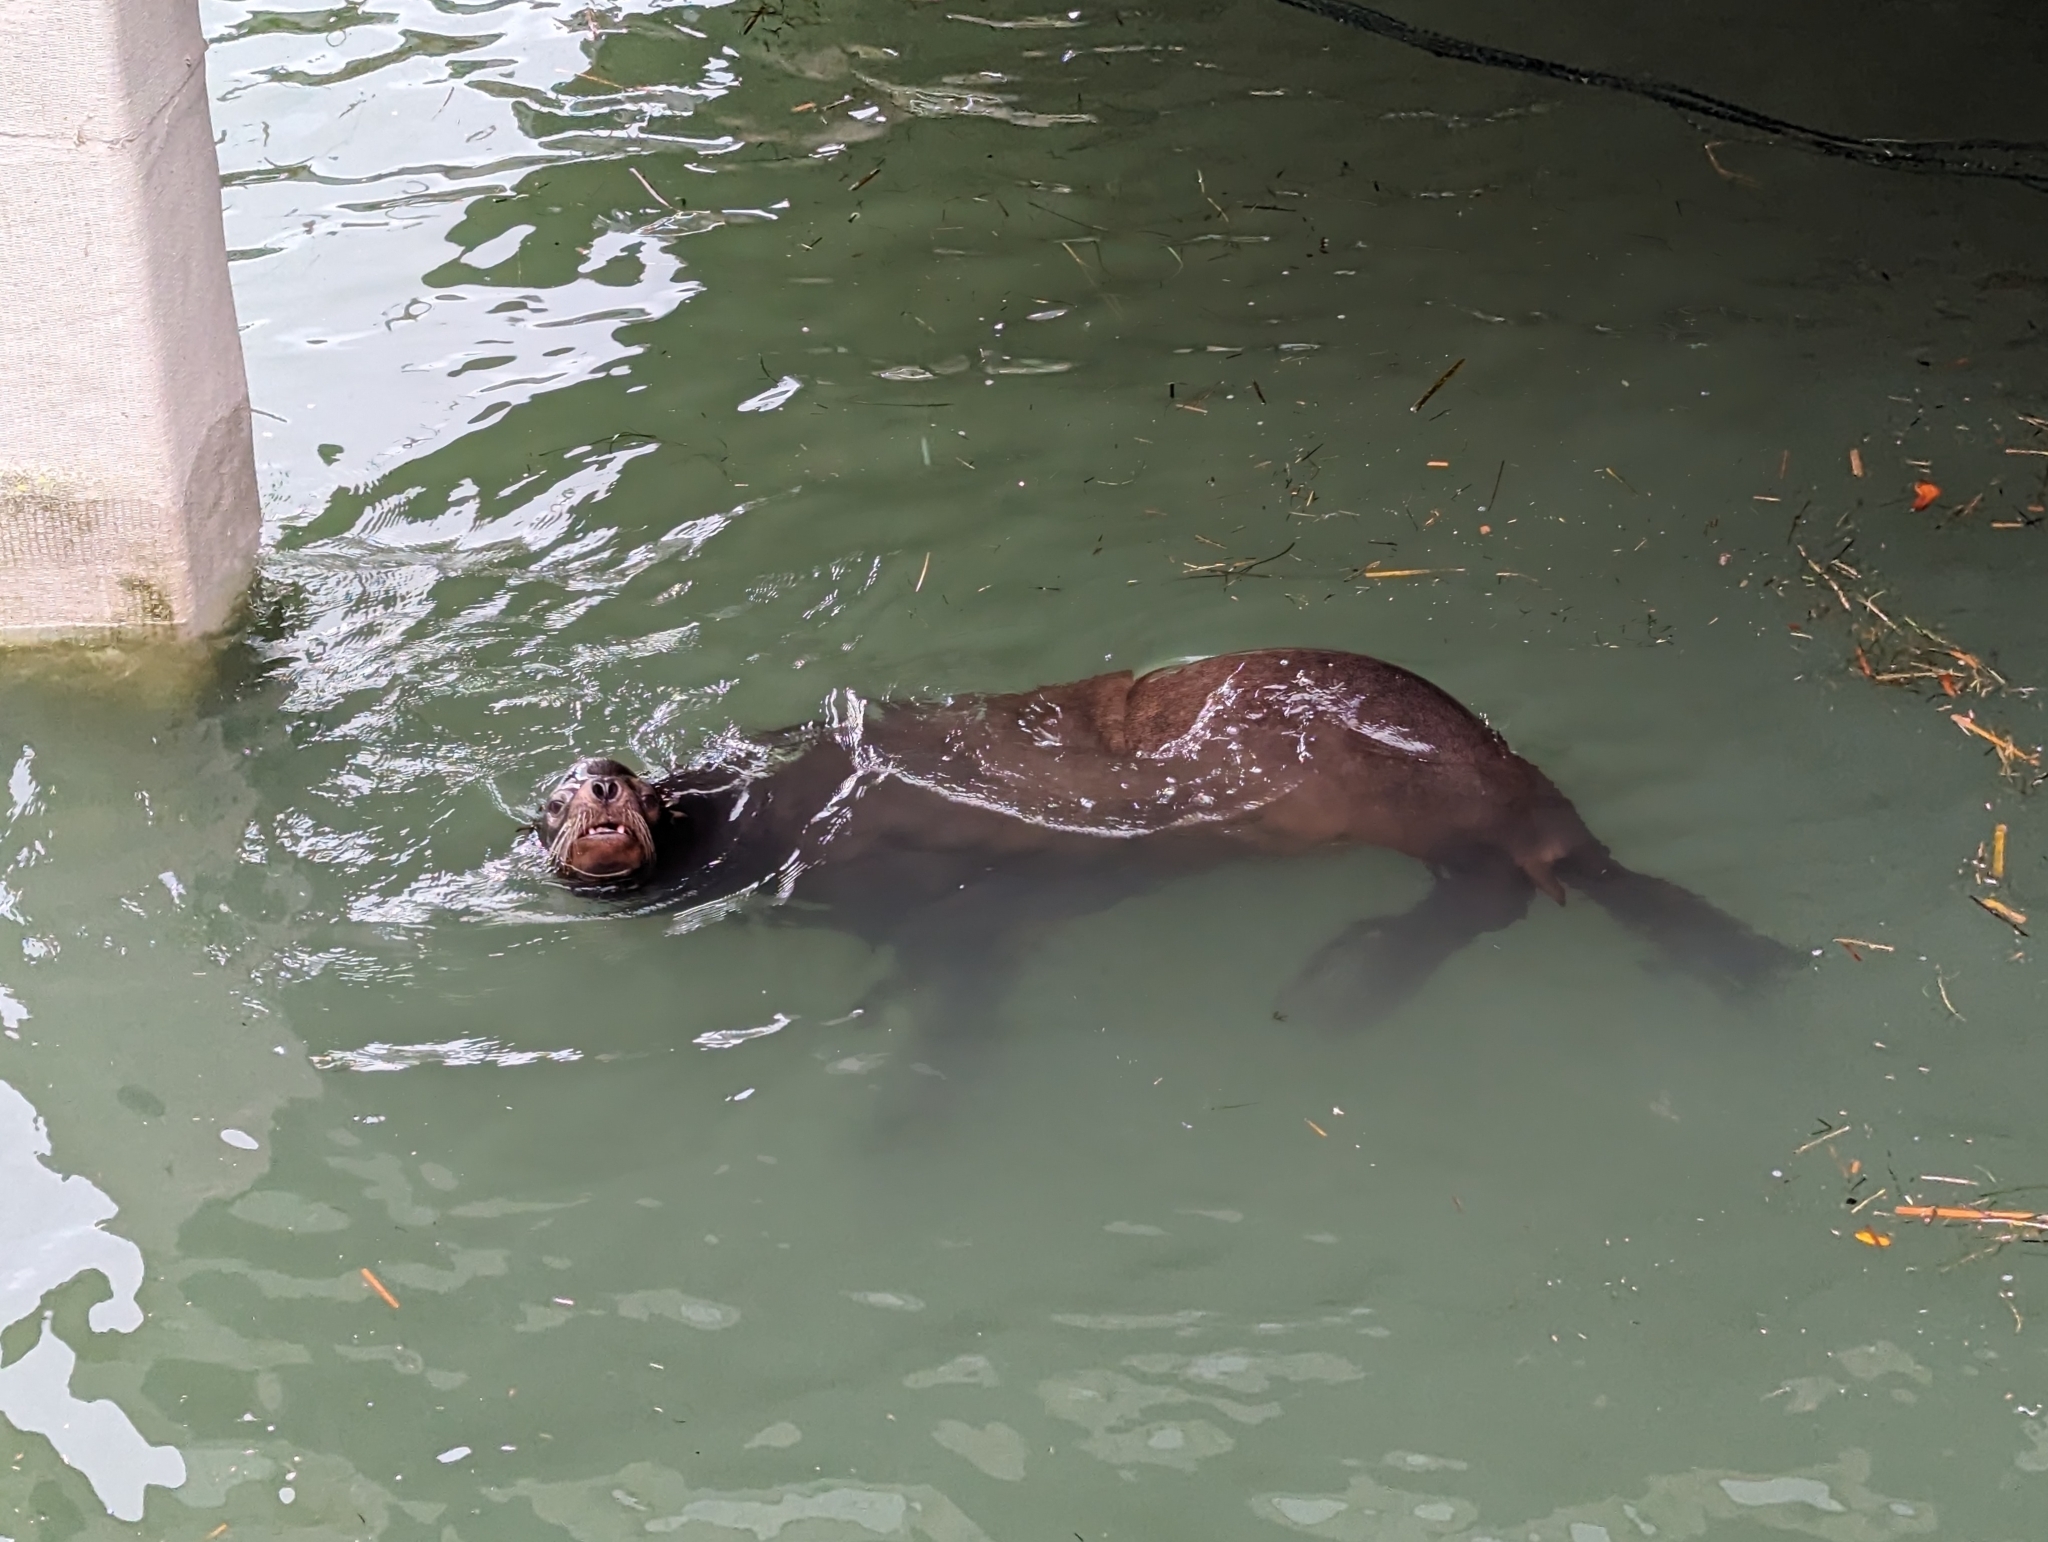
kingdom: Animalia
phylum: Chordata
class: Mammalia
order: Carnivora
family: Otariidae
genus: Zalophus
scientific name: Zalophus californianus
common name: California sea lion
